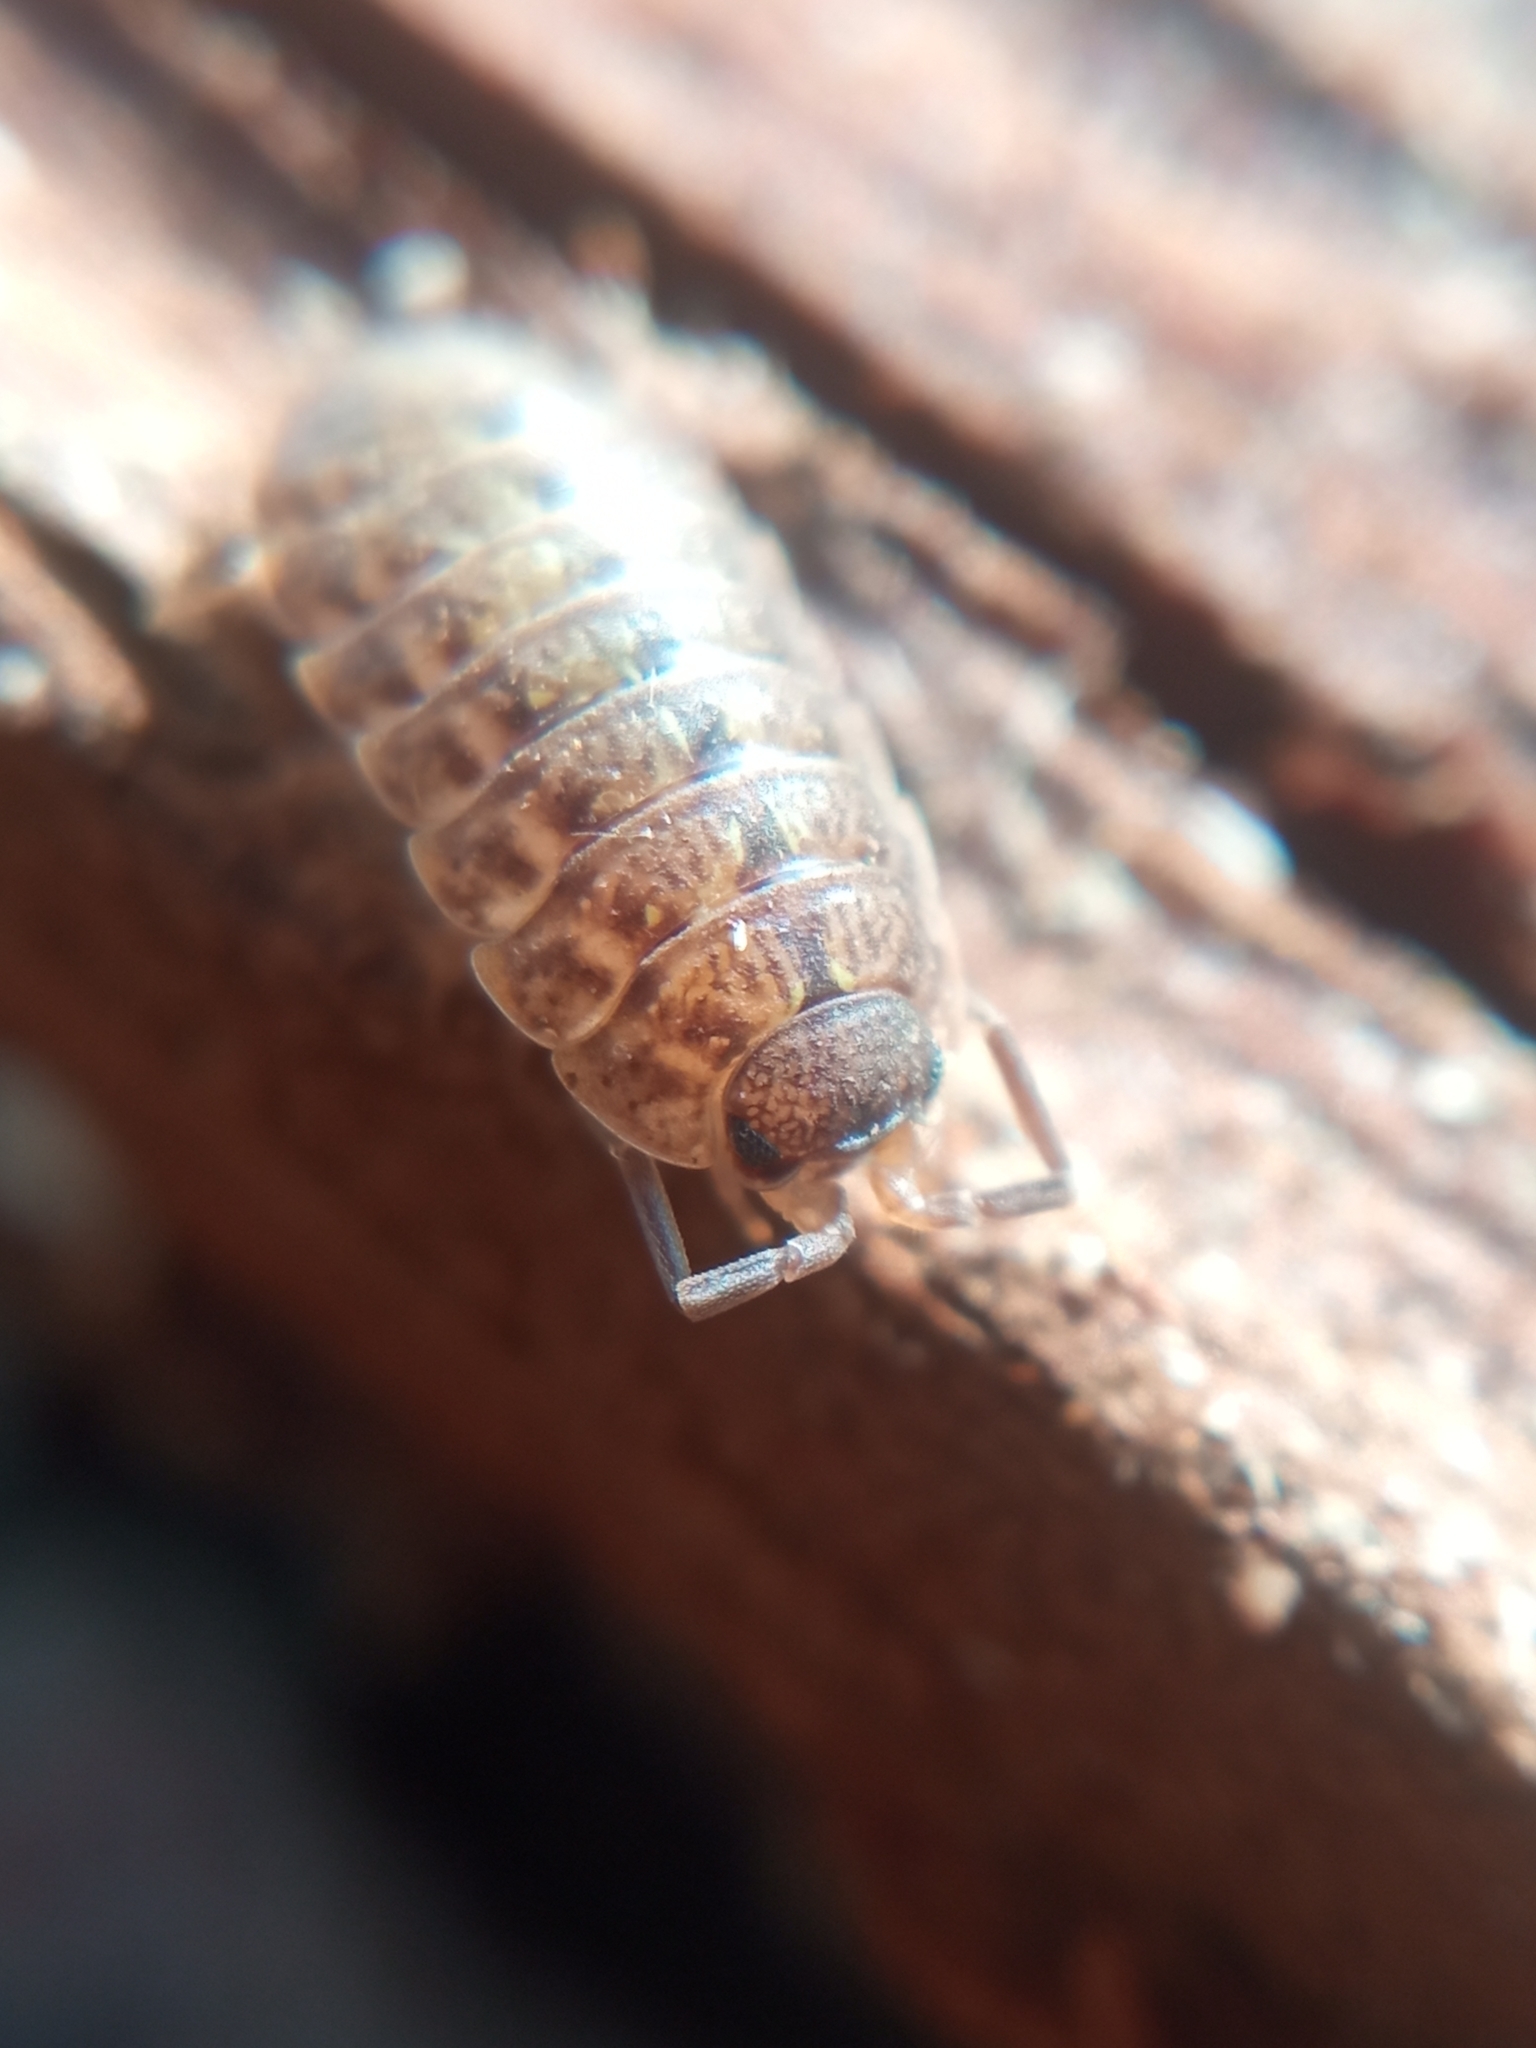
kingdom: Animalia
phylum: Arthropoda
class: Malacostraca
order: Isopoda
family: Porcellionidae
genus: Porcellio
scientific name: Porcellio monticola
